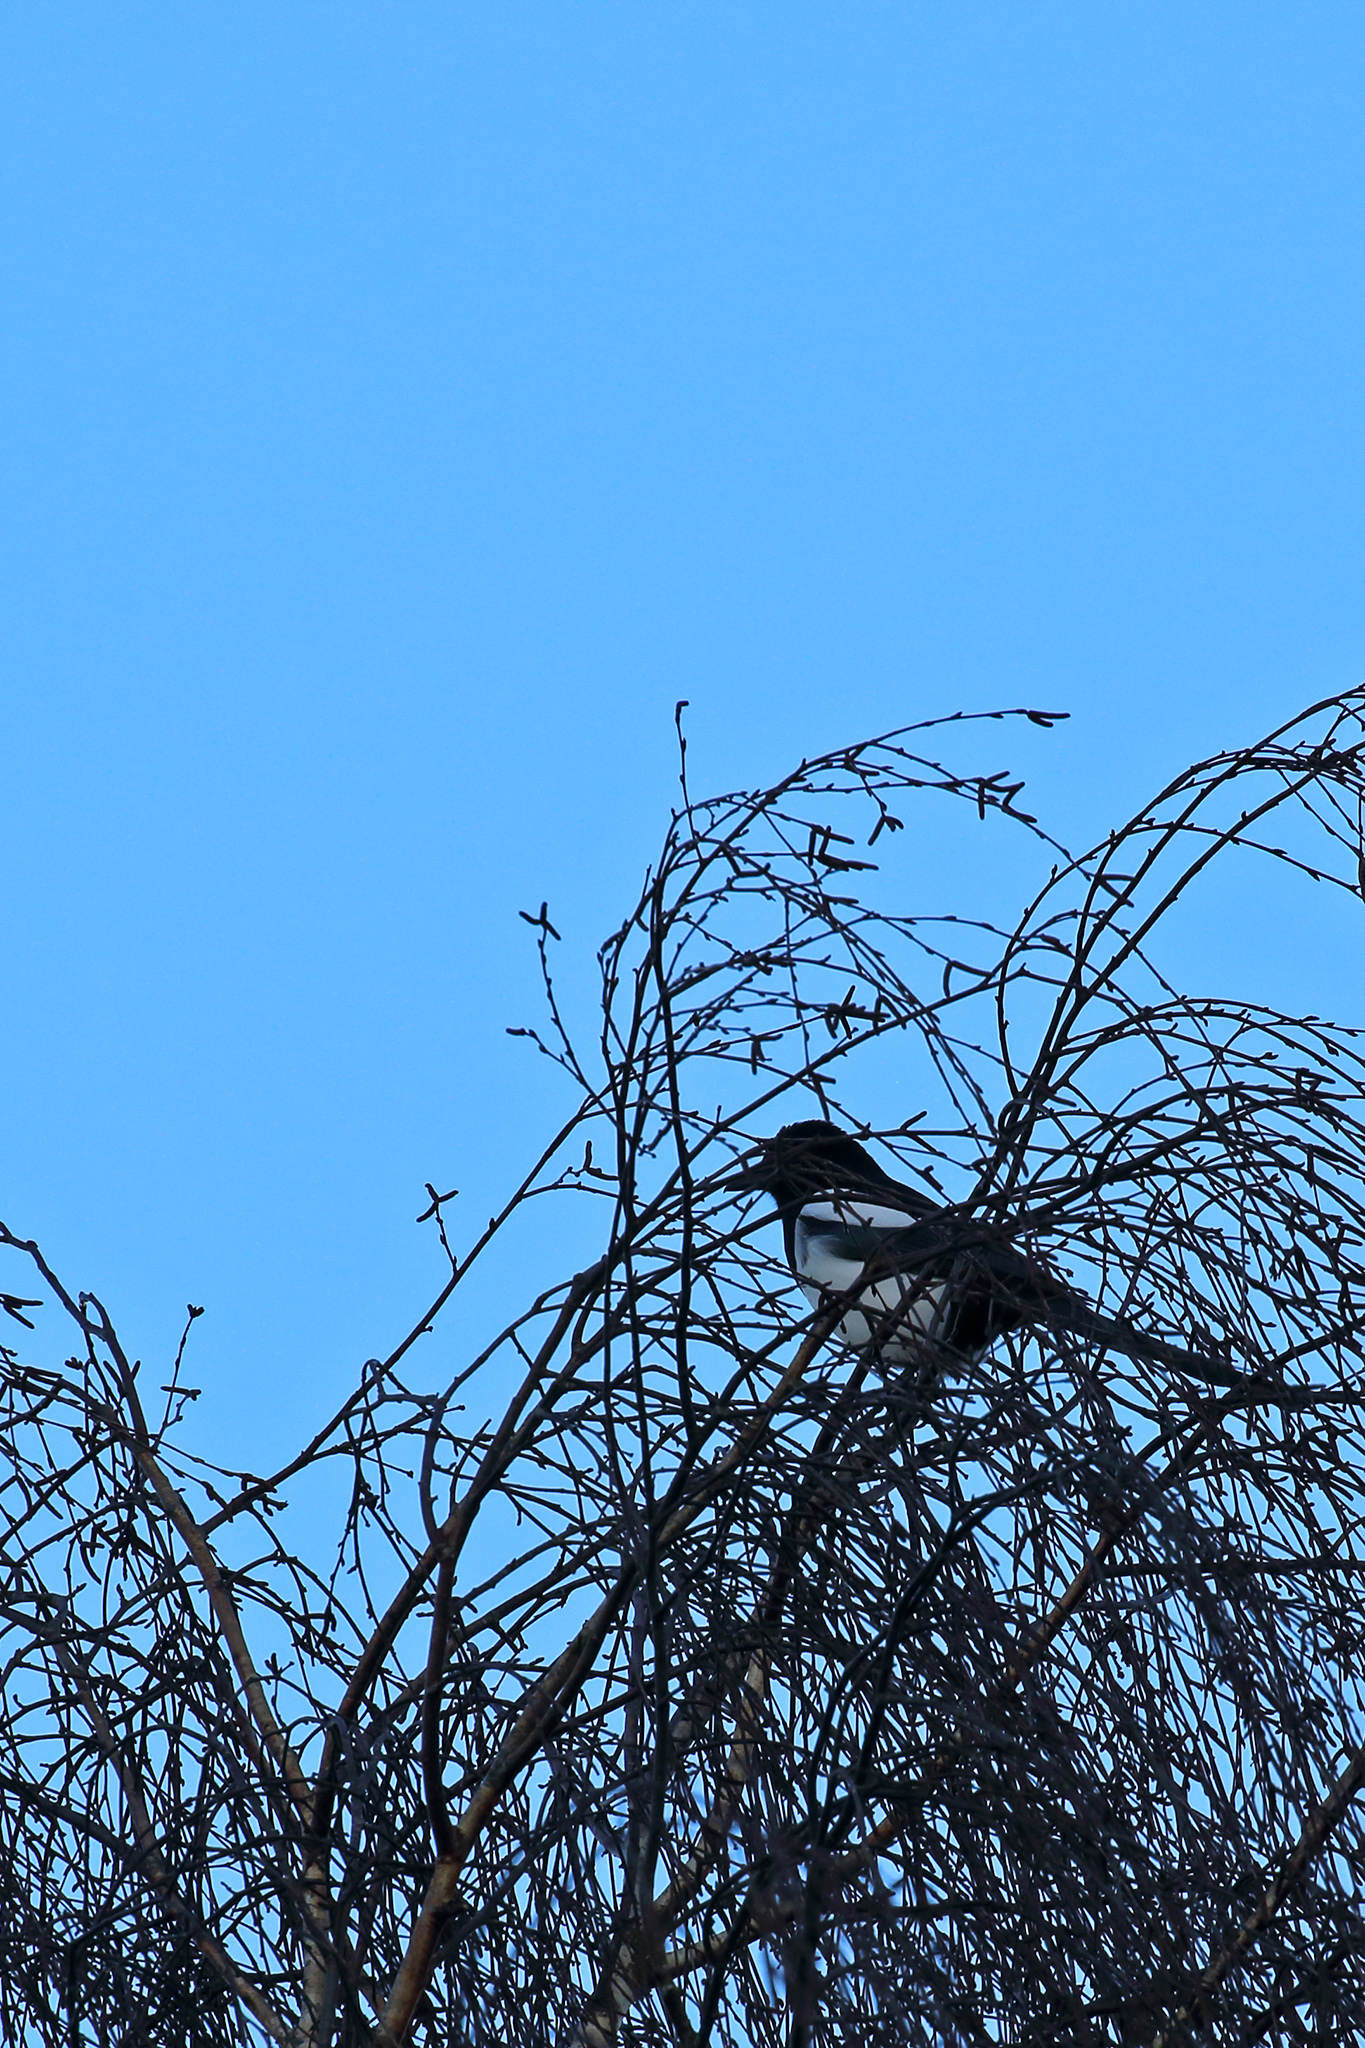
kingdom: Animalia
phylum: Chordata
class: Aves
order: Passeriformes
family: Corvidae
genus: Pica
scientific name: Pica pica
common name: Eurasian magpie
